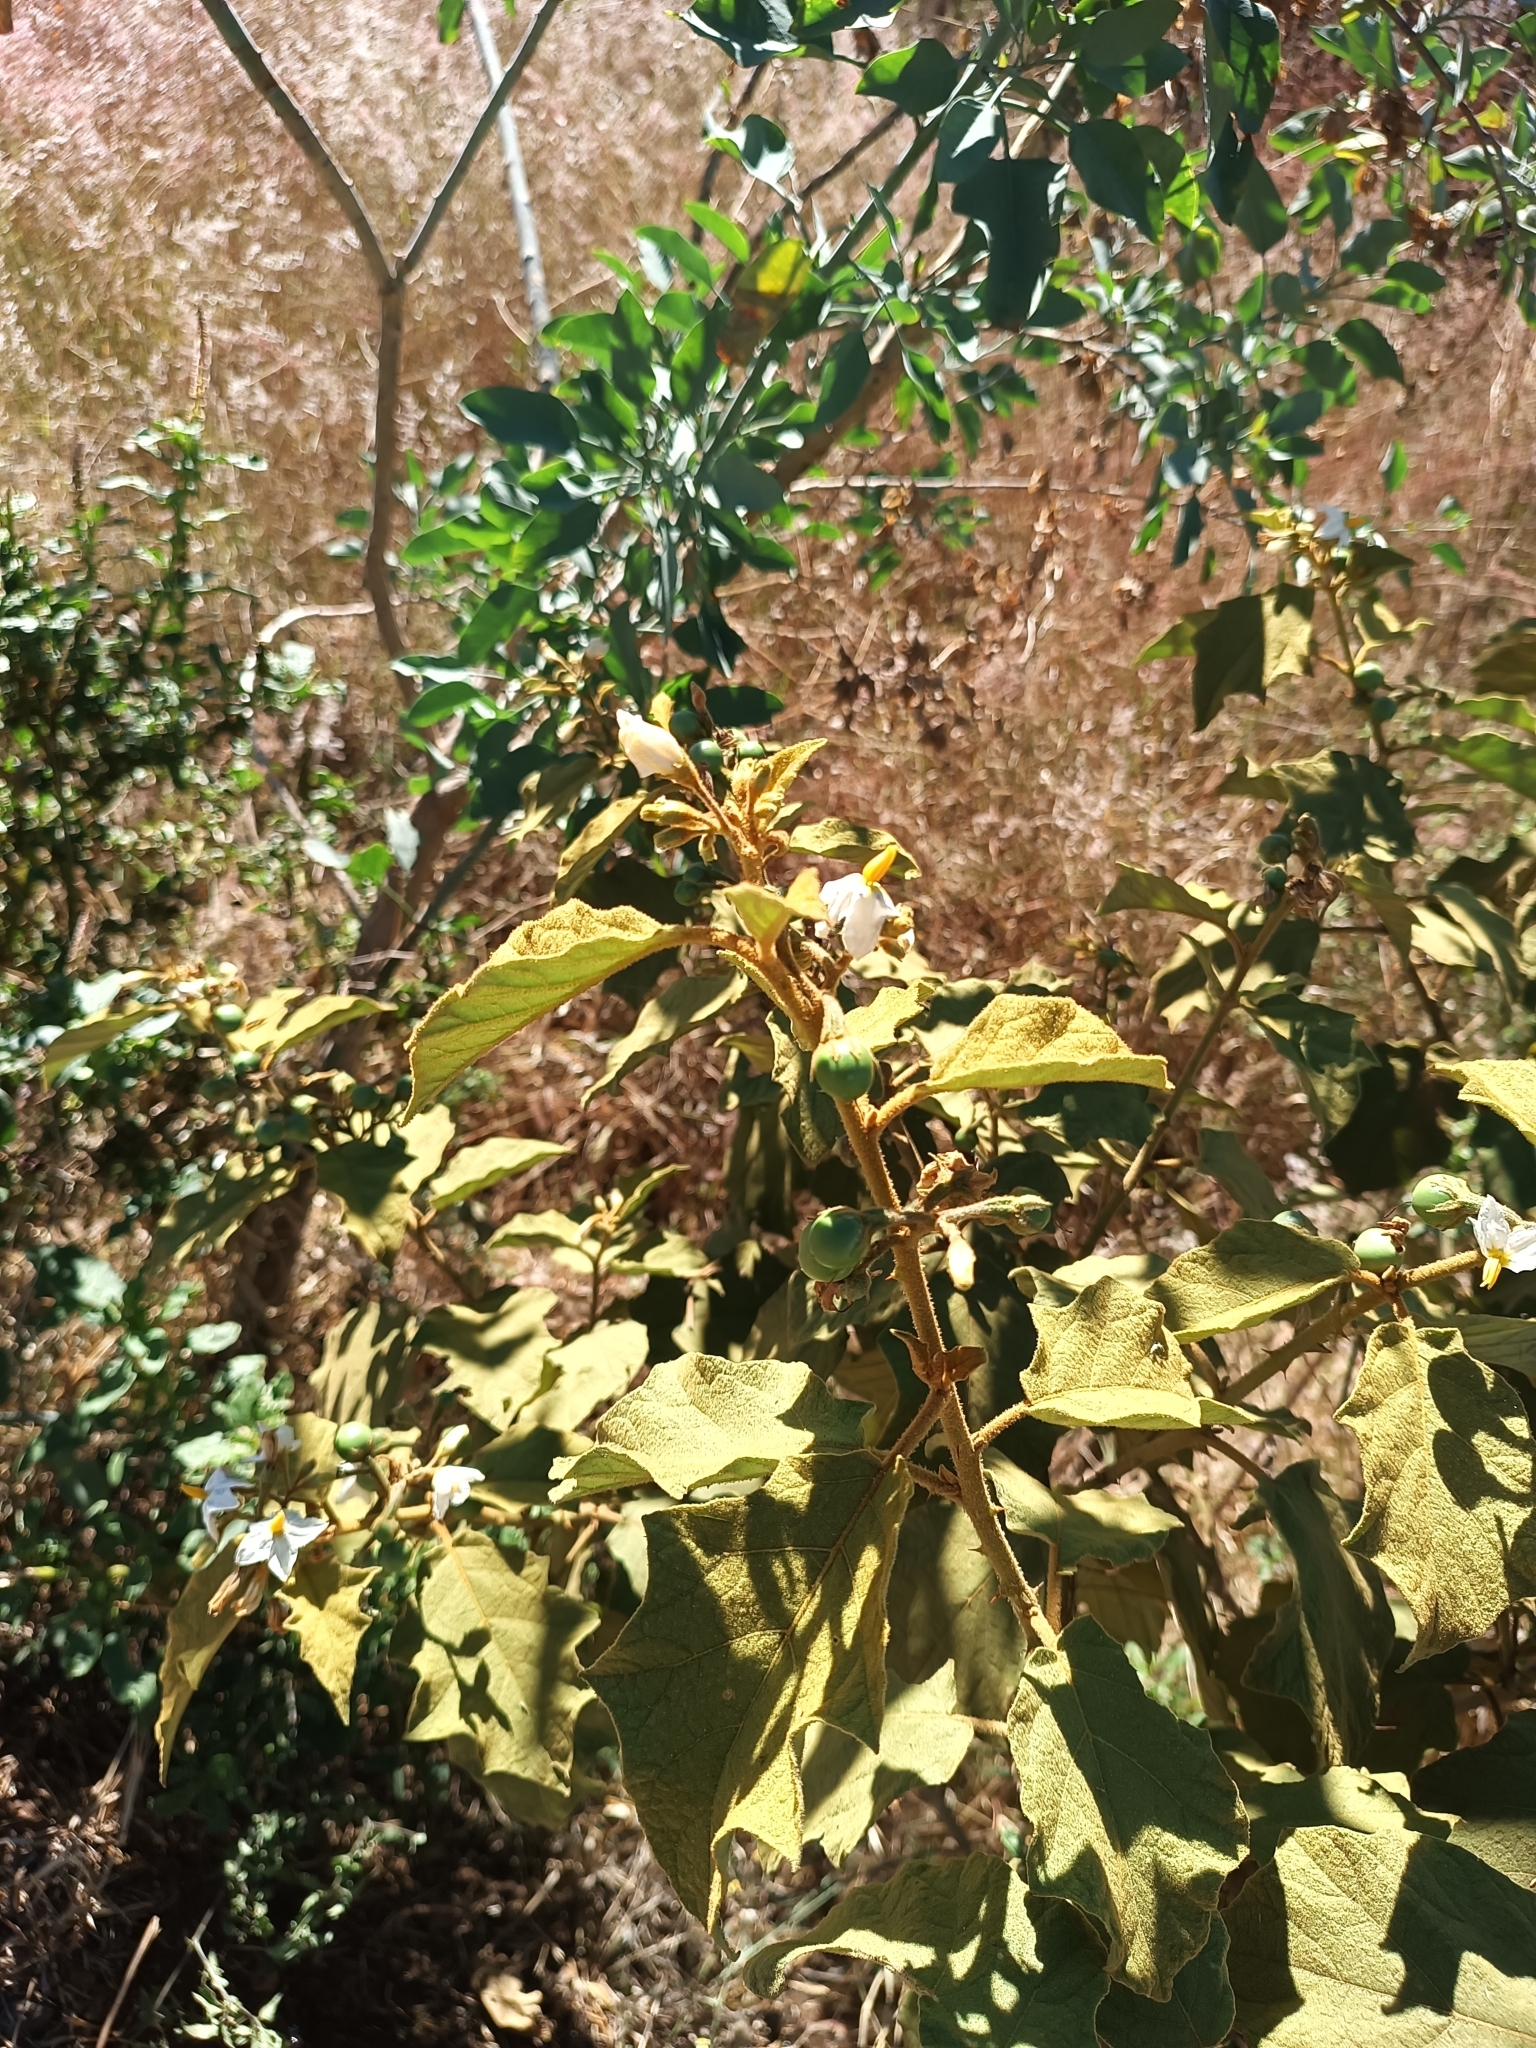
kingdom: Plantae
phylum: Tracheophyta
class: Magnoliopsida
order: Solanales
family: Solanaceae
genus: Solanum
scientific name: Solanum ferrugineum
